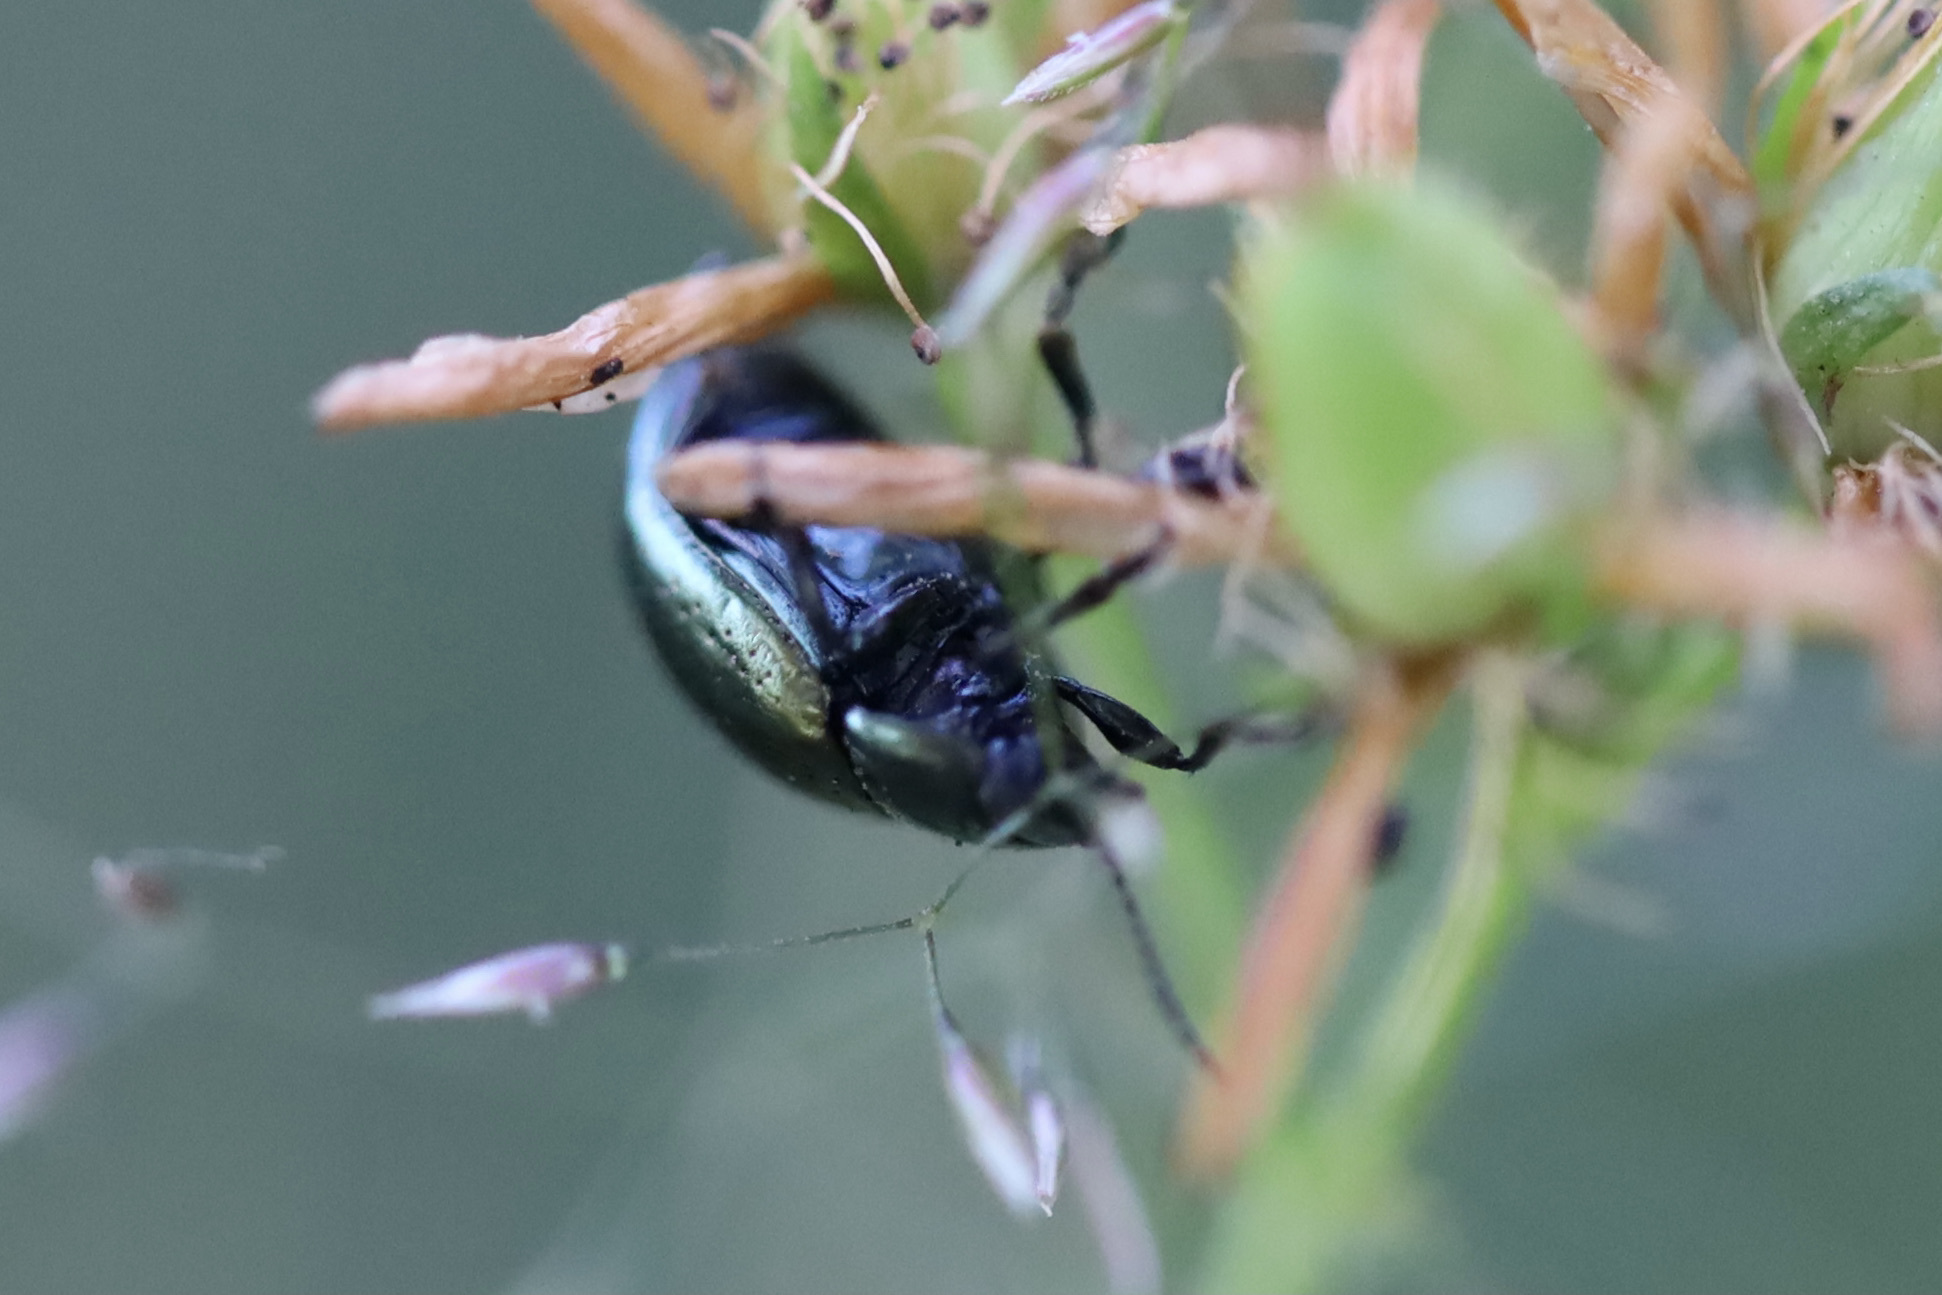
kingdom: Animalia
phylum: Arthropoda
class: Insecta
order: Coleoptera
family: Chrysomelidae
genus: Chrysolina
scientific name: Chrysolina hyperici
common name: St. johnswort beetle
